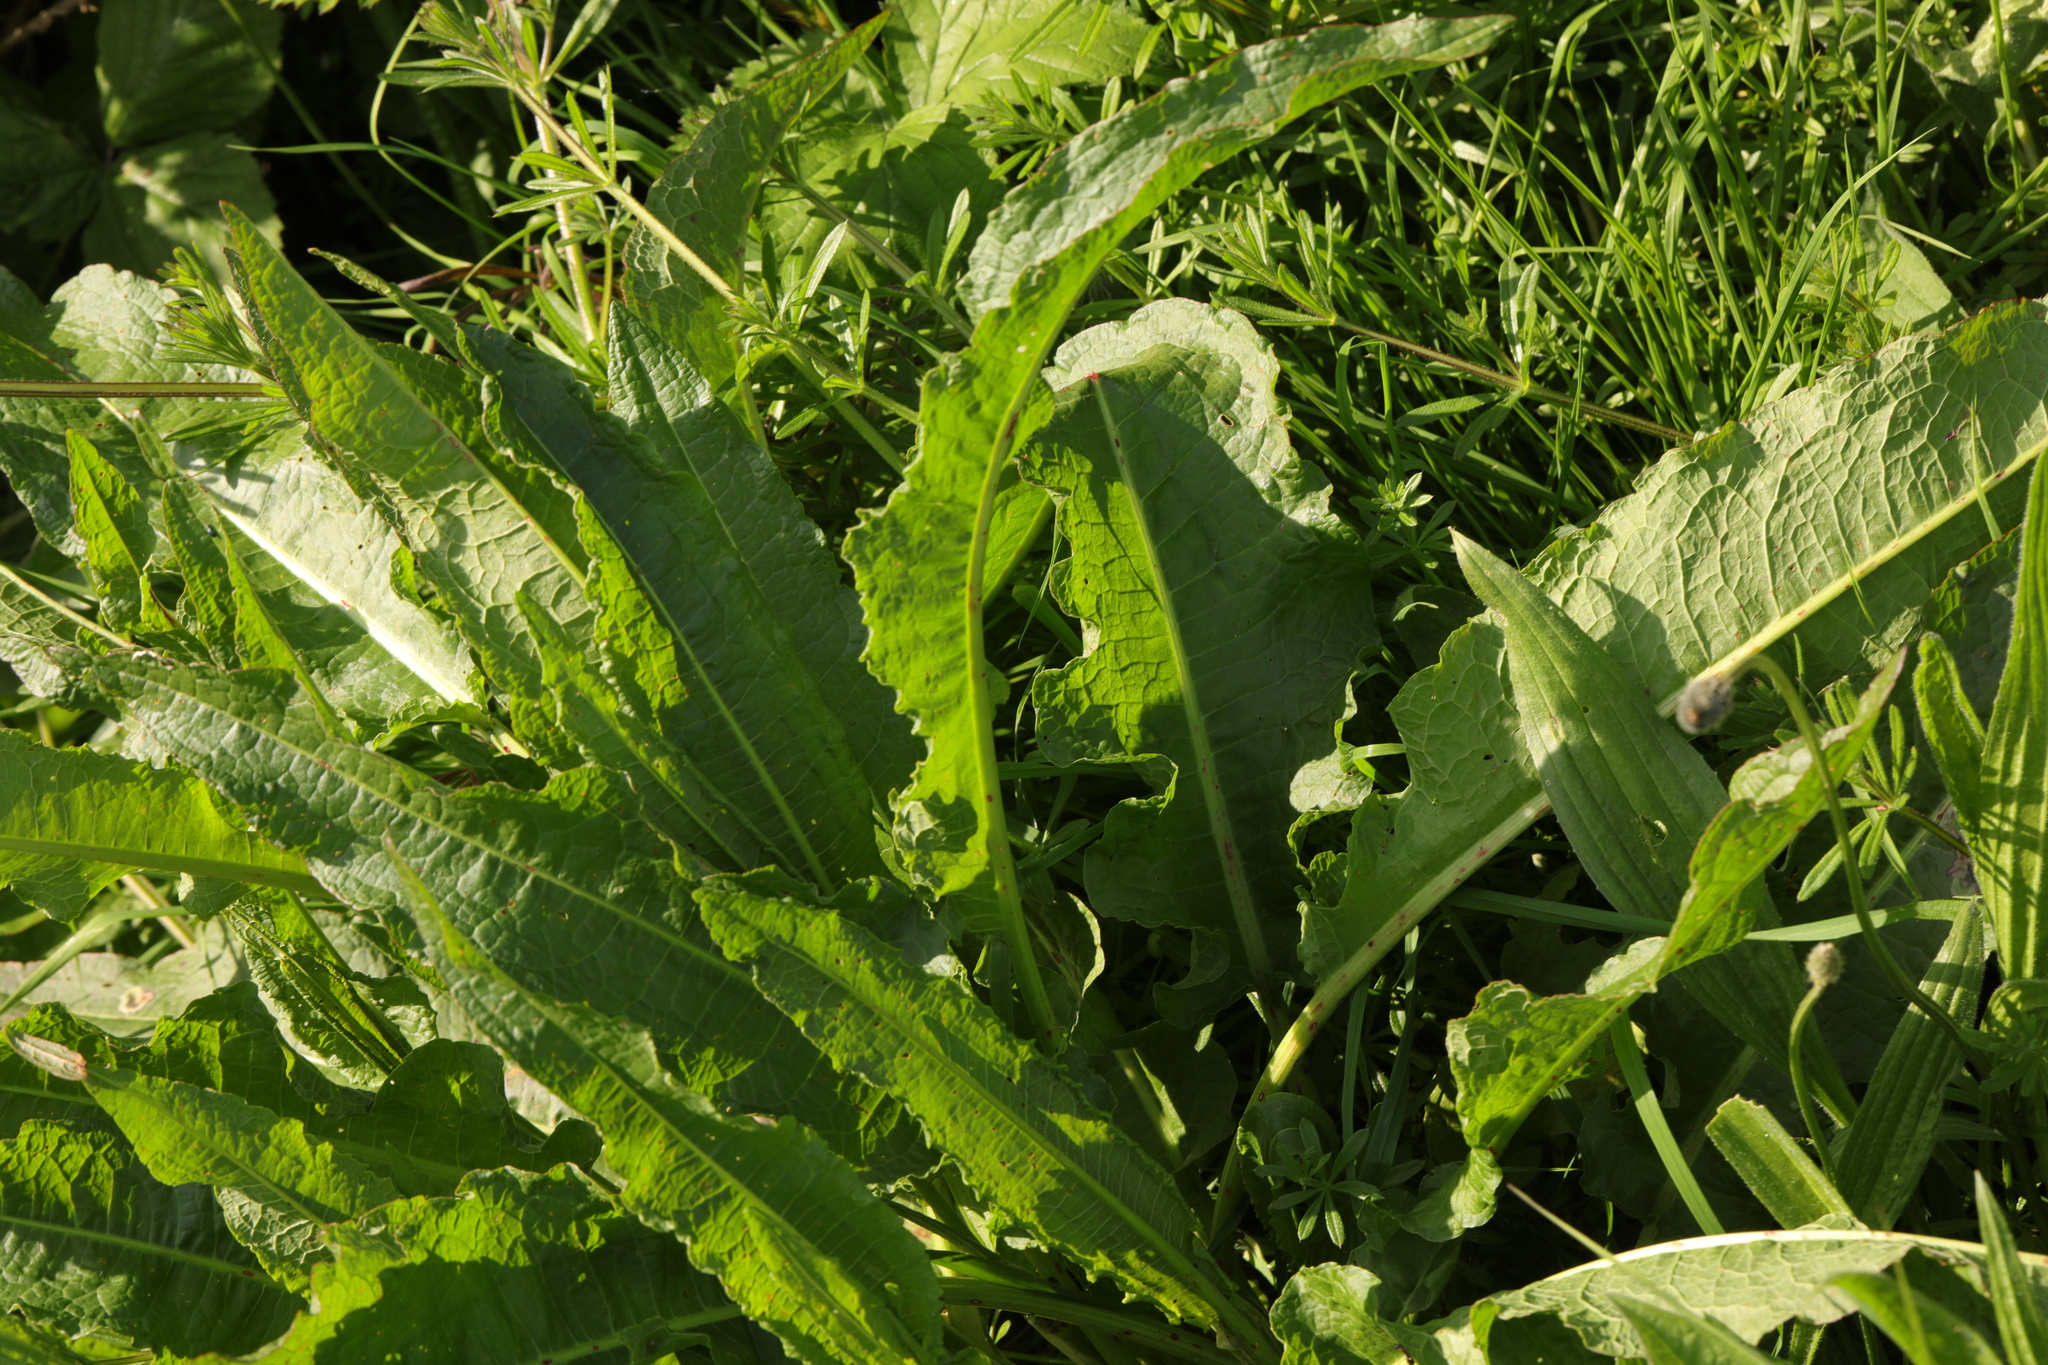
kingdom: Plantae
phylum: Tracheophyta
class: Magnoliopsida
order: Caryophyllales
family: Polygonaceae
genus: Rumex
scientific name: Rumex crispus
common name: Curled dock
